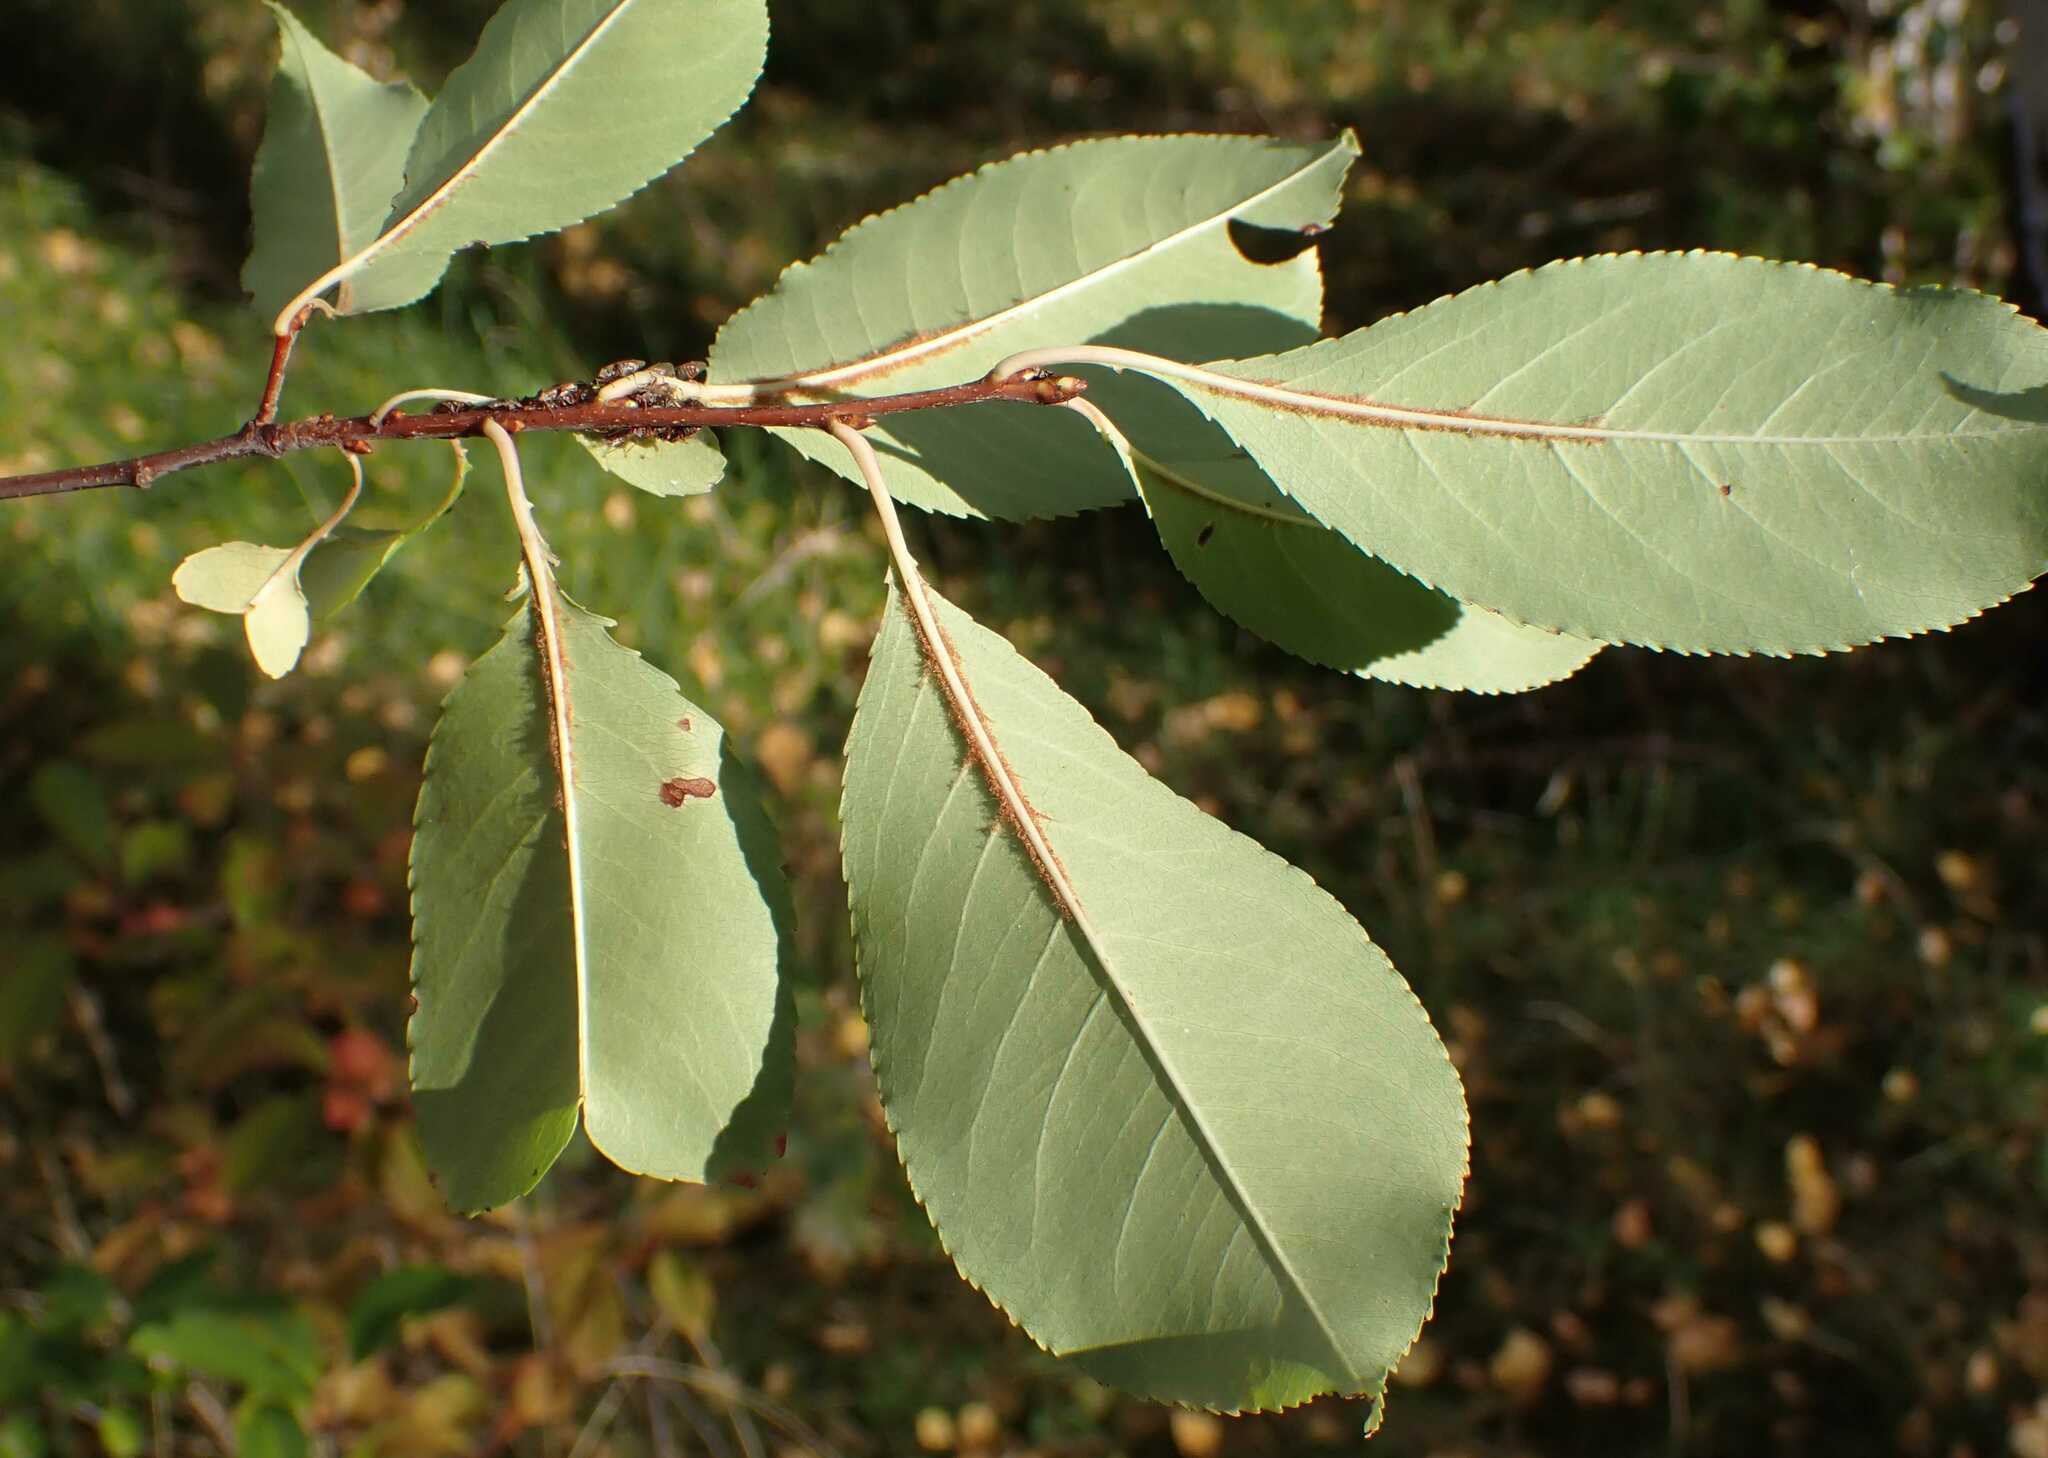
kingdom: Plantae
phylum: Tracheophyta
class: Magnoliopsida
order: Rosales
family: Rosaceae
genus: Prunus
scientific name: Prunus serotina
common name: Black cherry
